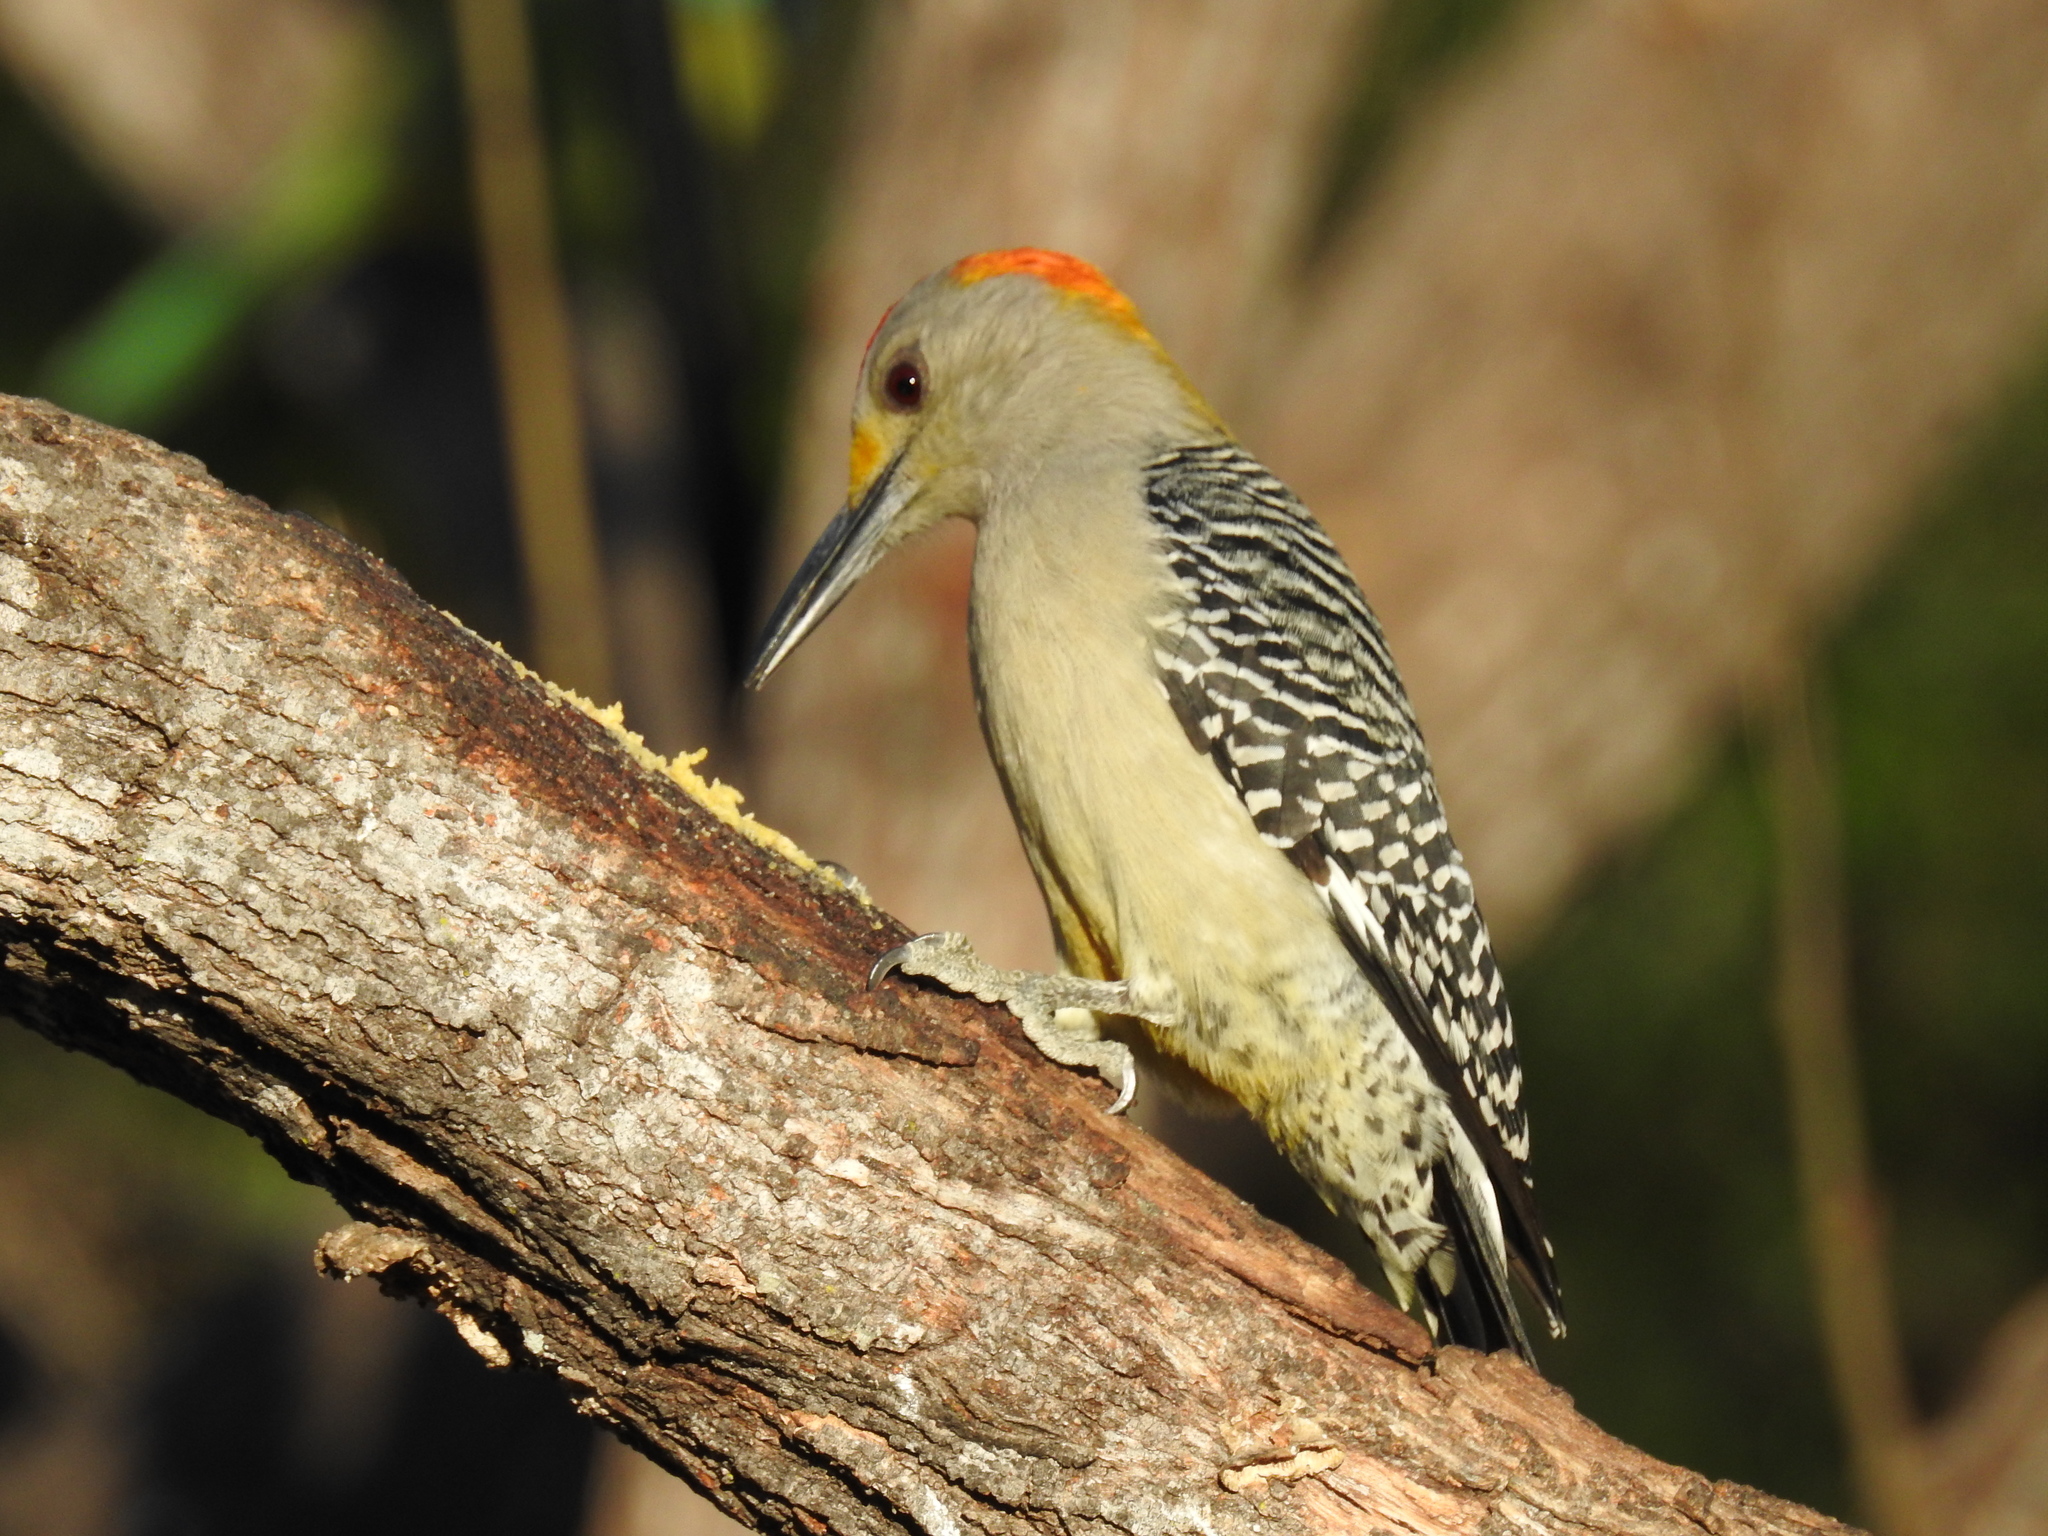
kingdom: Animalia
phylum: Chordata
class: Aves
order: Piciformes
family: Picidae
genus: Melanerpes
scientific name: Melanerpes aurifrons
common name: Golden-fronted woodpecker
